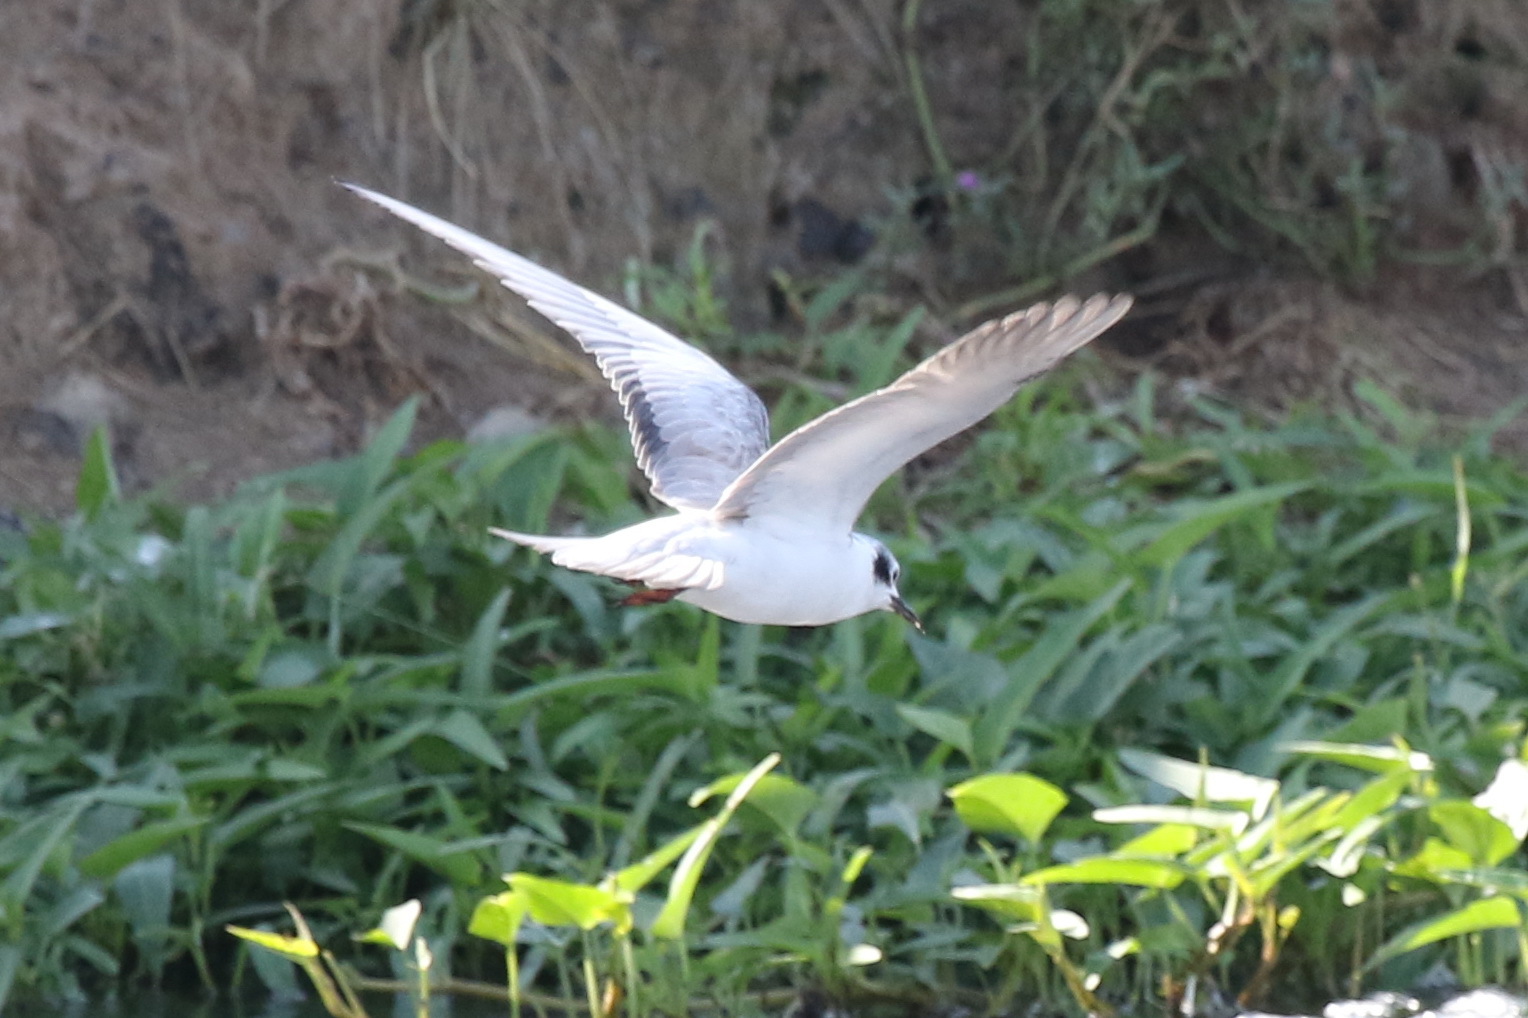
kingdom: Animalia
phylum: Chordata
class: Aves
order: Charadriiformes
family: Laridae
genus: Chlidonias
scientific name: Chlidonias leucopterus
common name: White-winged tern
